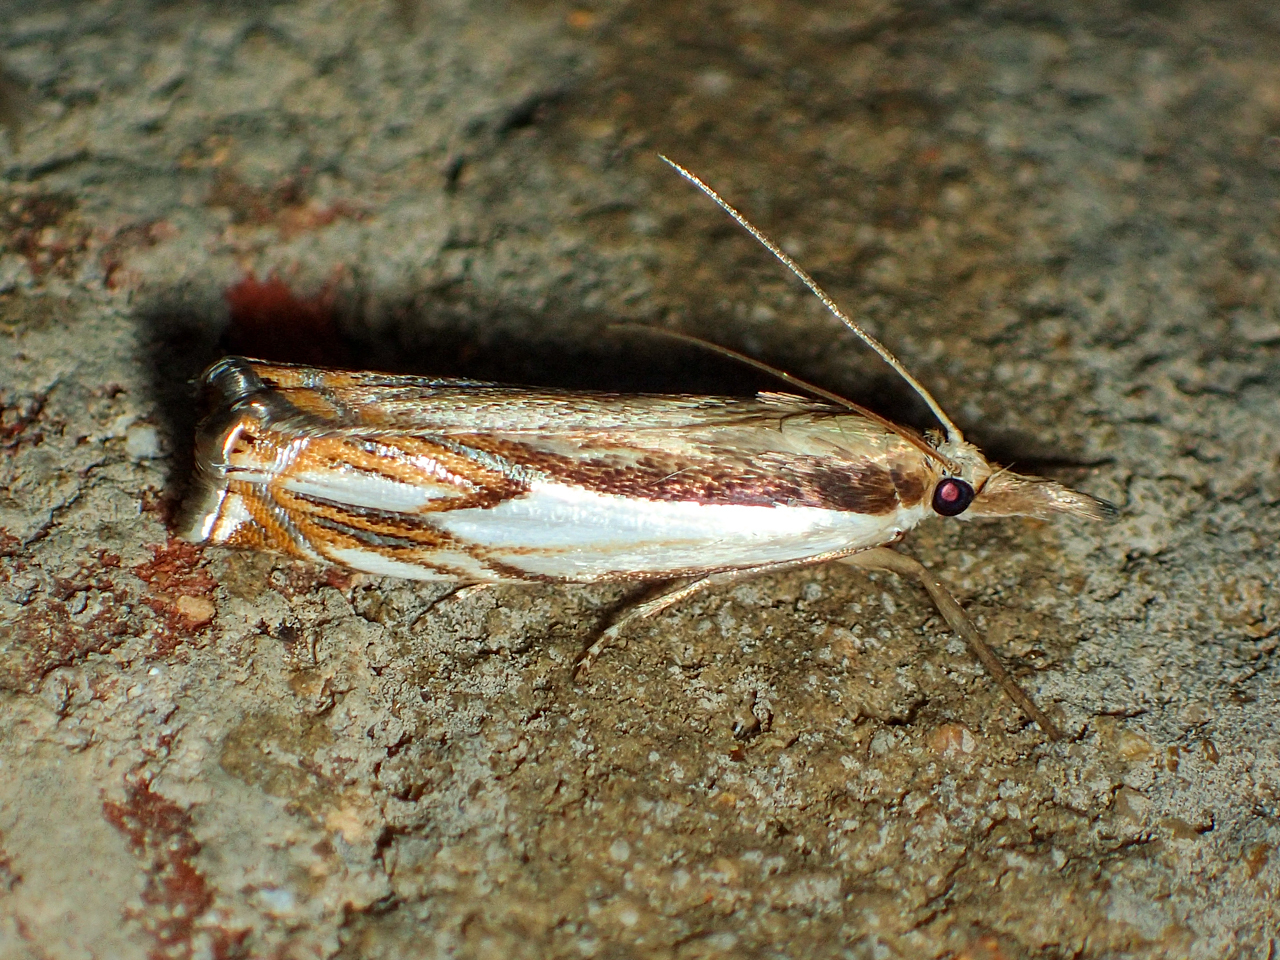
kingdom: Animalia
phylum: Arthropoda
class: Insecta
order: Lepidoptera
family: Crambidae
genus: Crambus
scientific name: Crambus agitatellus
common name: Double-banded grass-veneer
